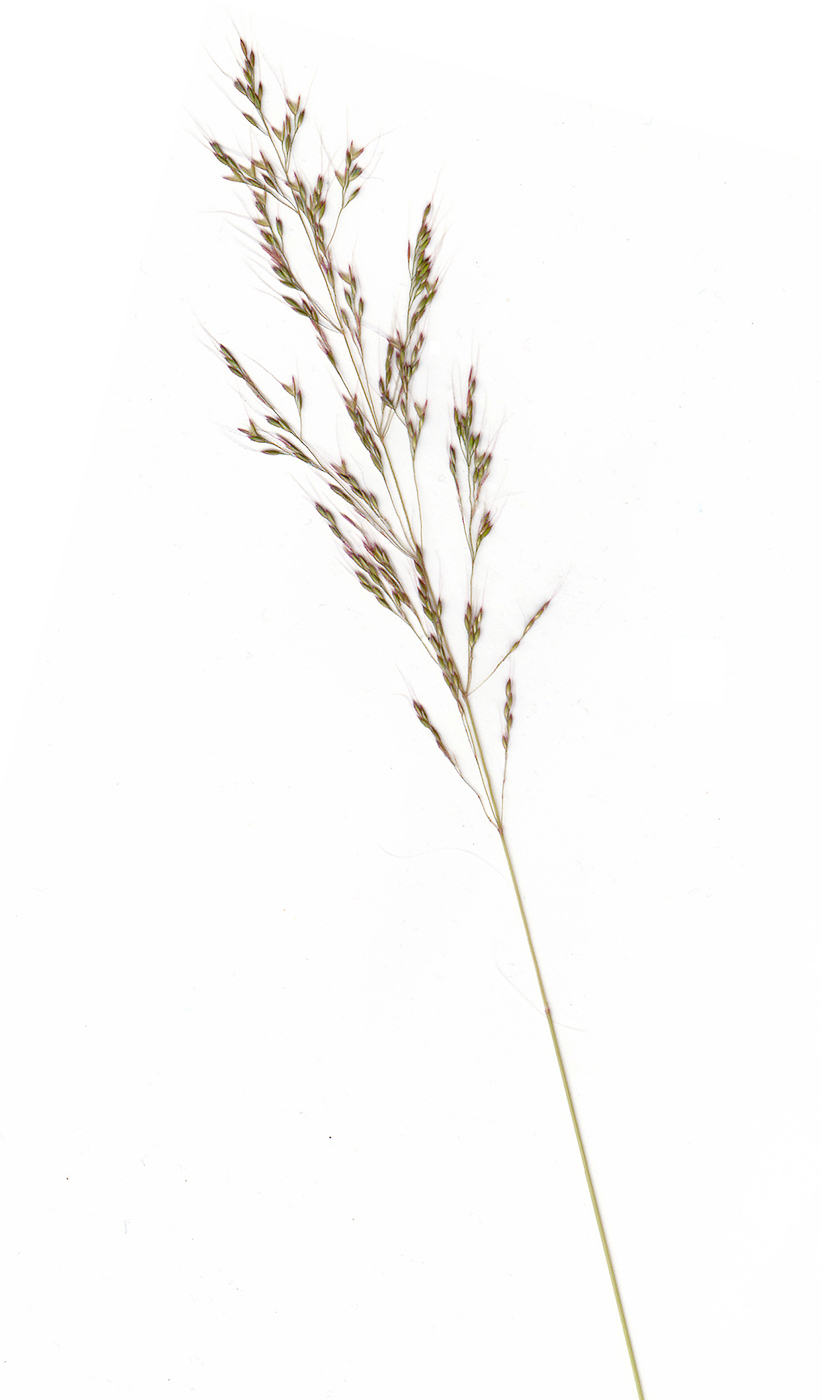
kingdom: Plantae
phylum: Tracheophyta
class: Liliopsida
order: Poales
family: Poaceae
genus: Apera
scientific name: Apera spica-venti
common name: Loose silky-bent
